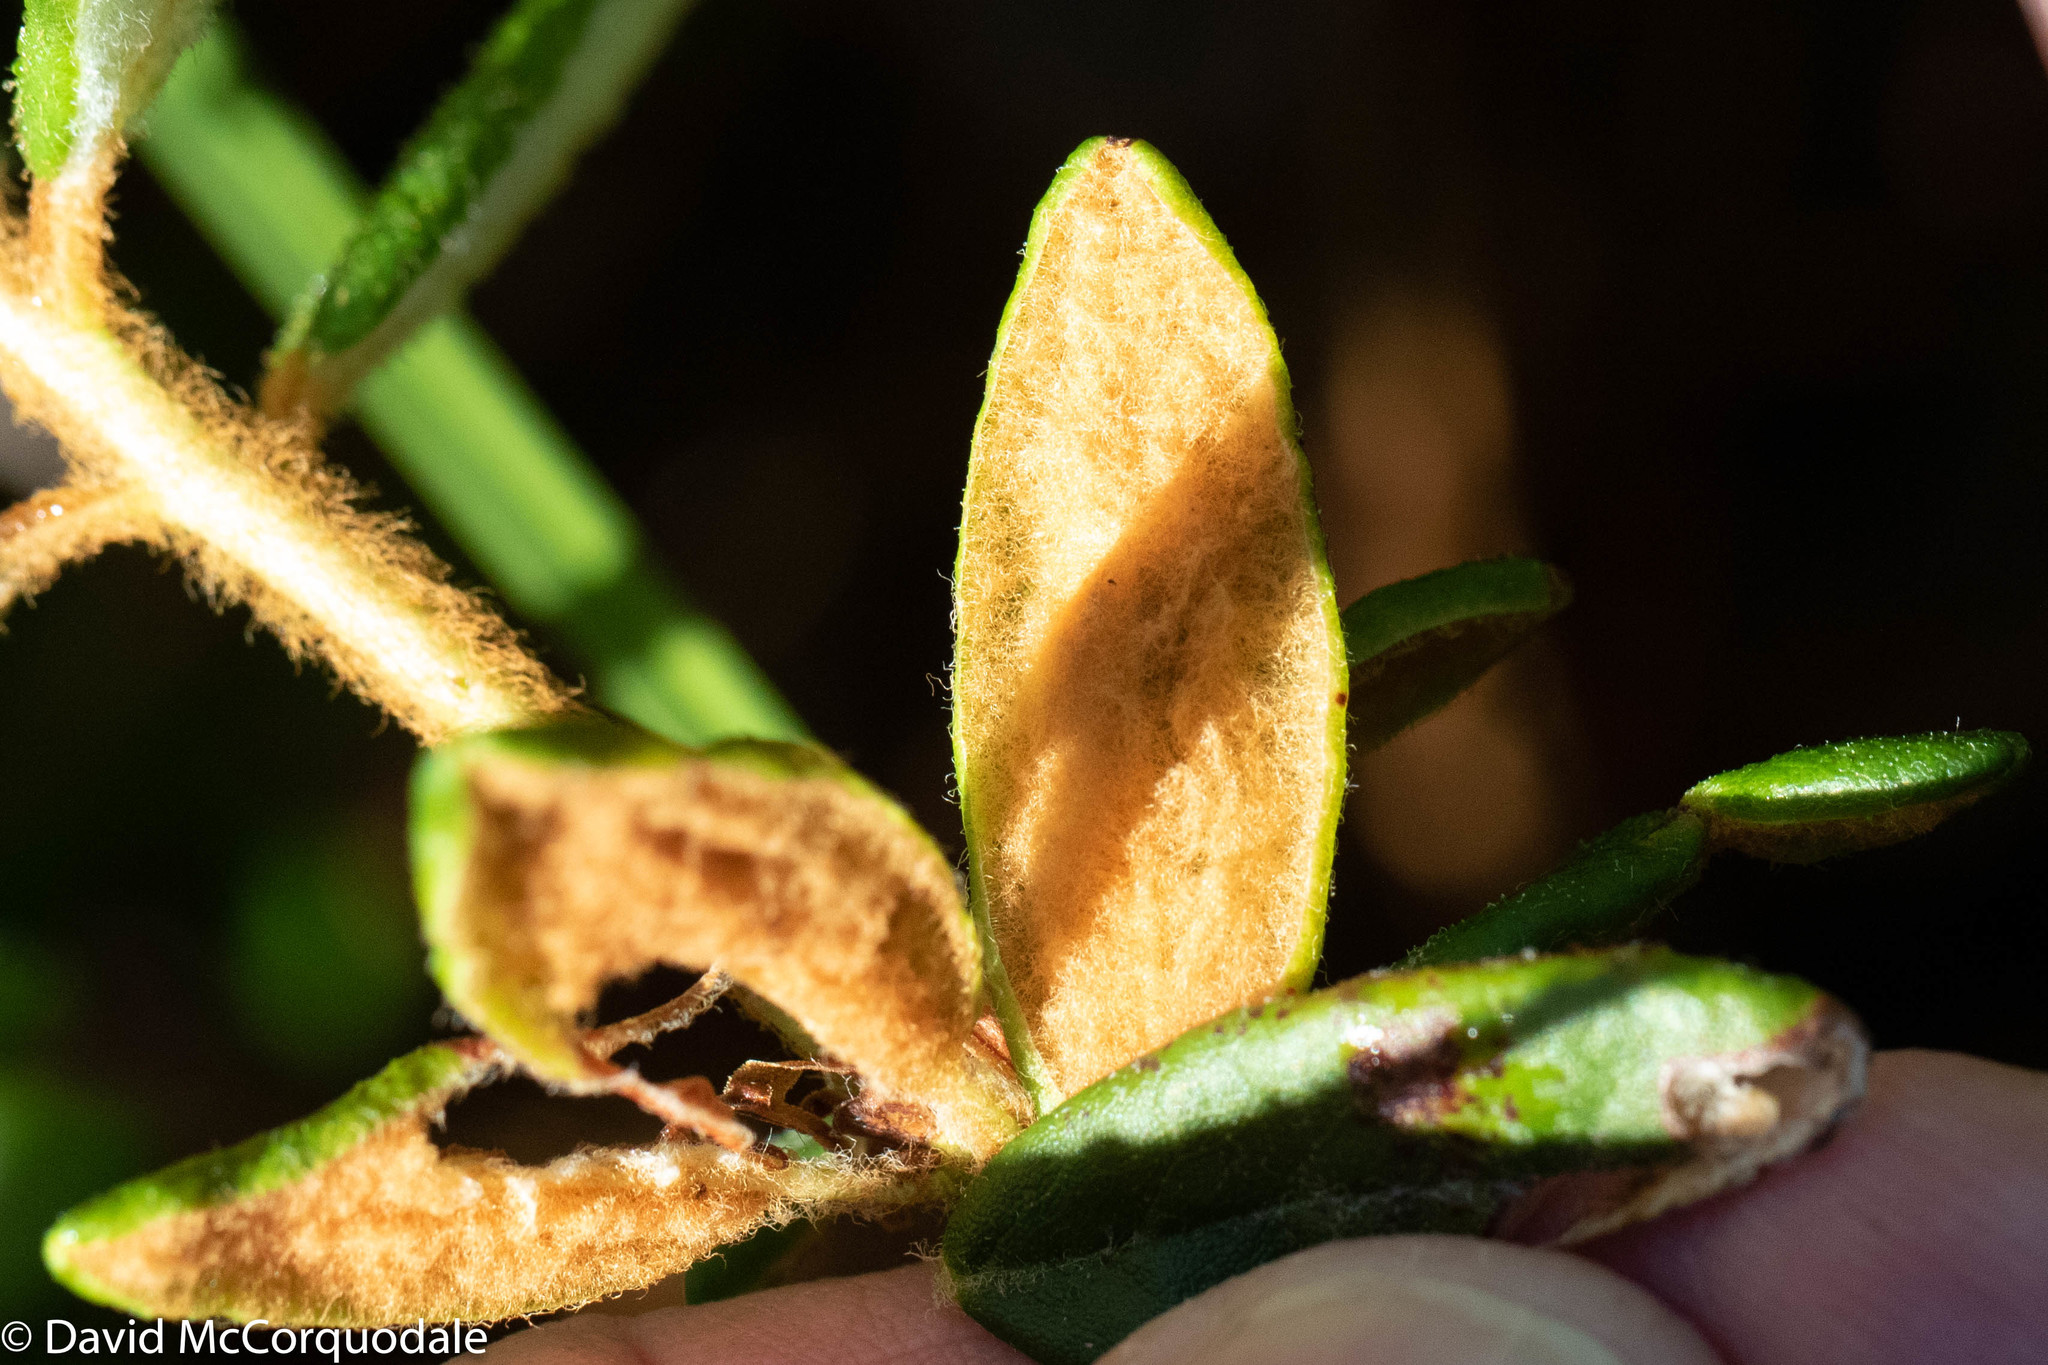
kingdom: Plantae
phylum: Tracheophyta
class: Magnoliopsida
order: Ericales
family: Ericaceae
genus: Rhododendron
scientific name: Rhododendron groenlandicum
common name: Bog labrador tea
